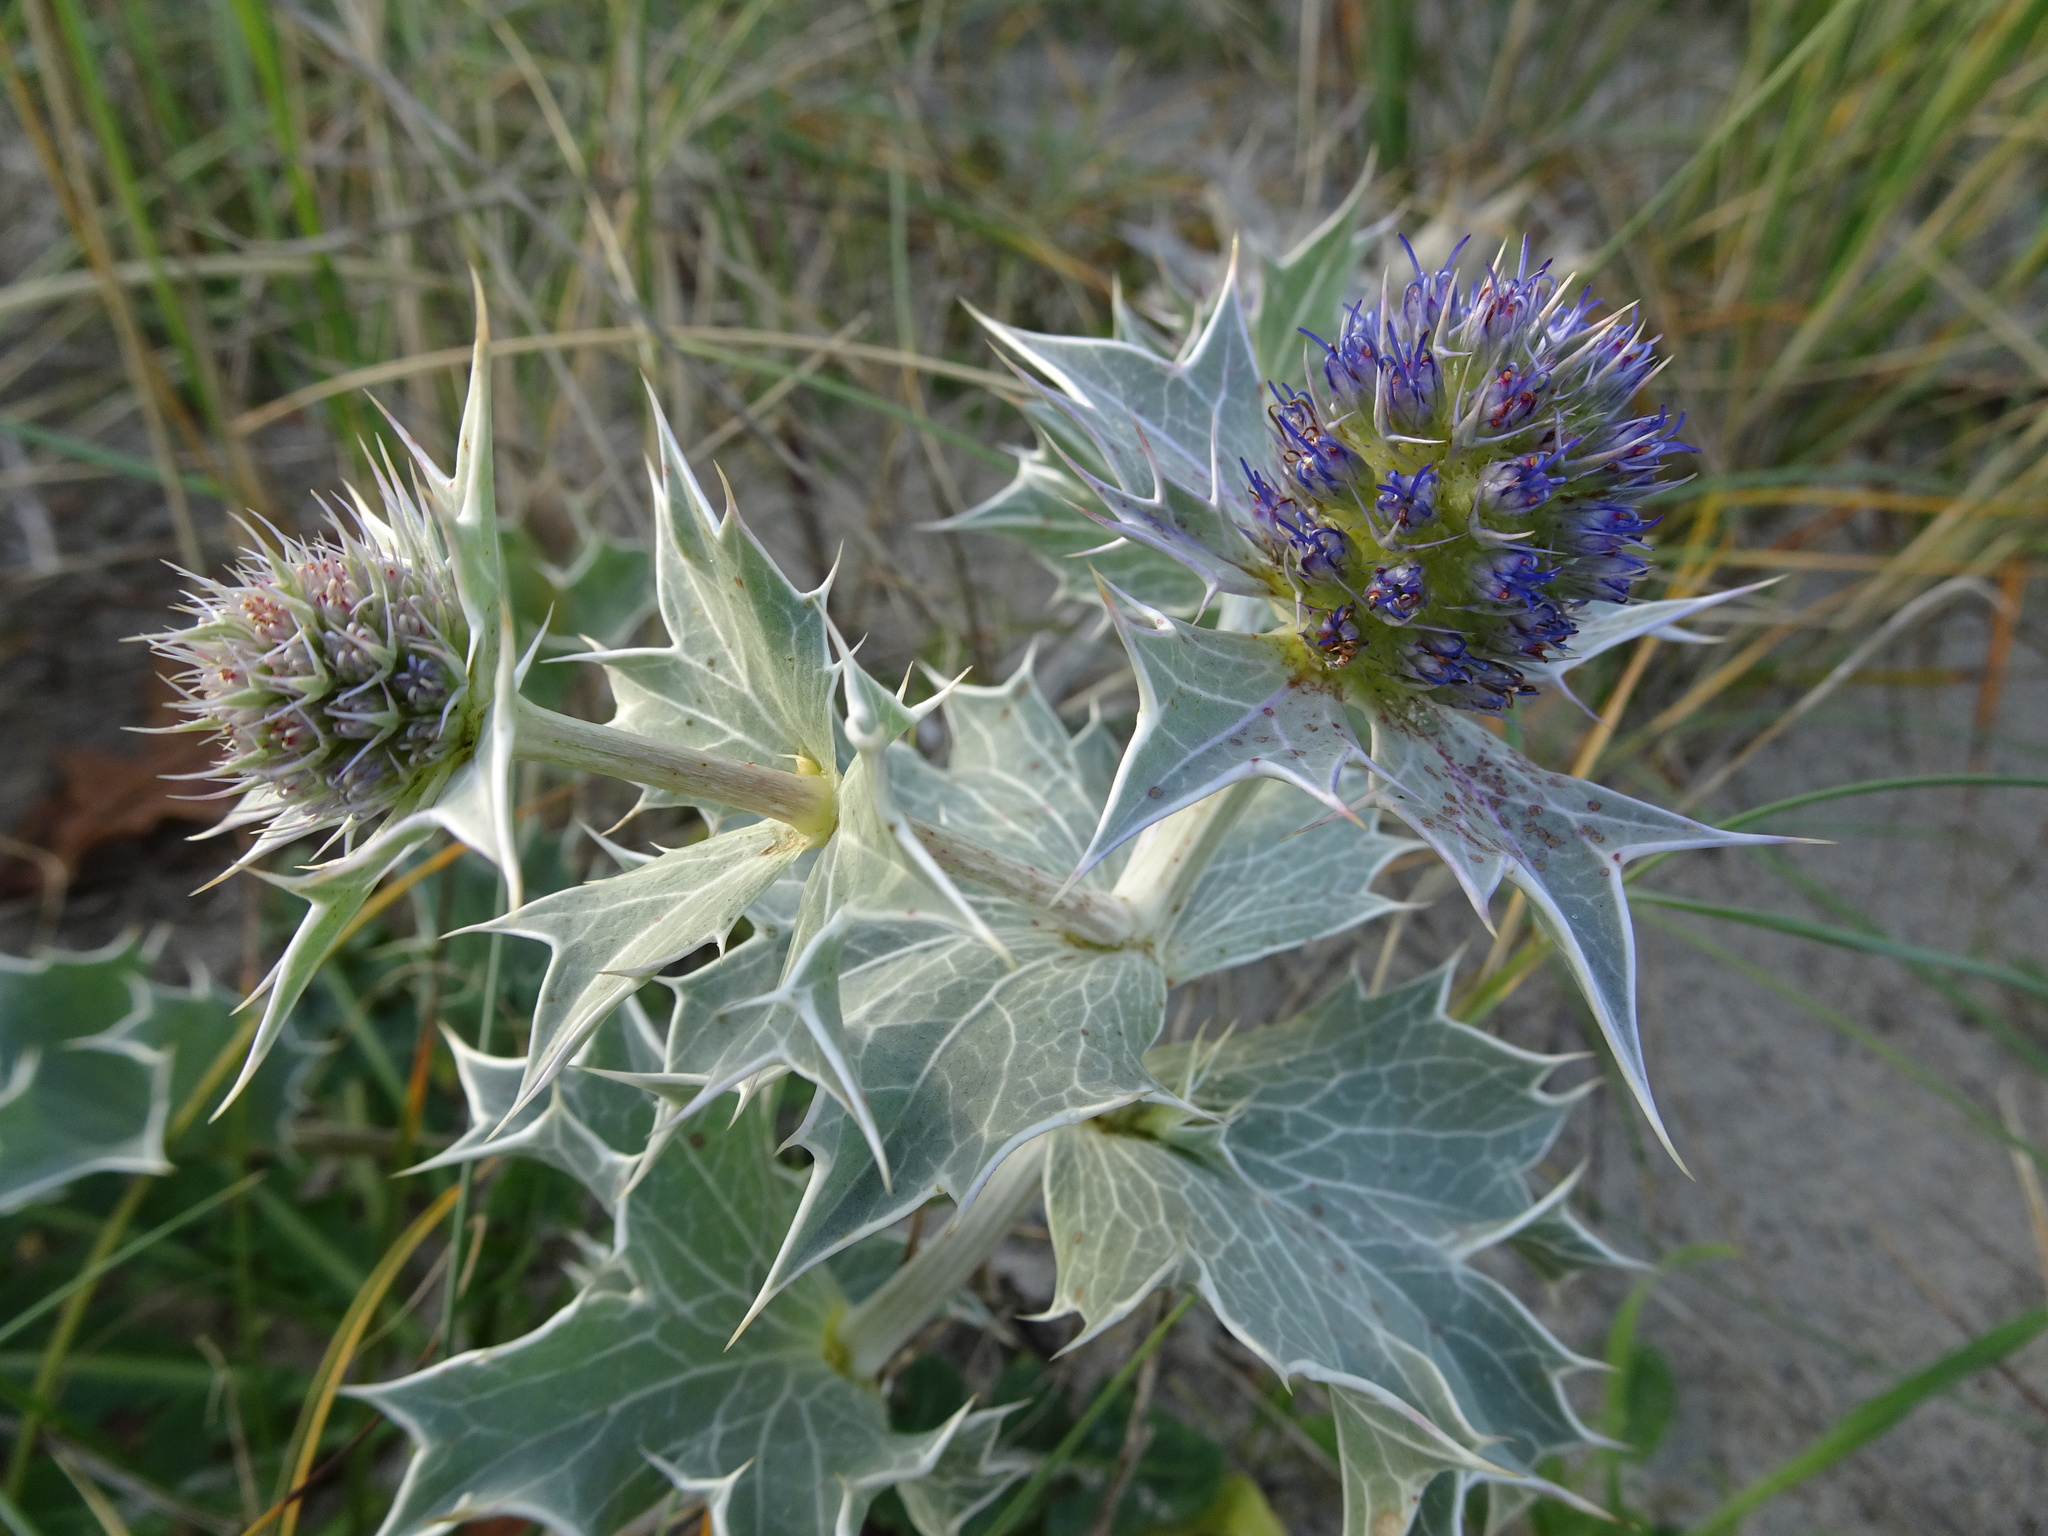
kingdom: Plantae
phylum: Tracheophyta
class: Magnoliopsida
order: Apiales
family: Apiaceae
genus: Eryngium
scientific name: Eryngium maritimum
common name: Sea-holly
